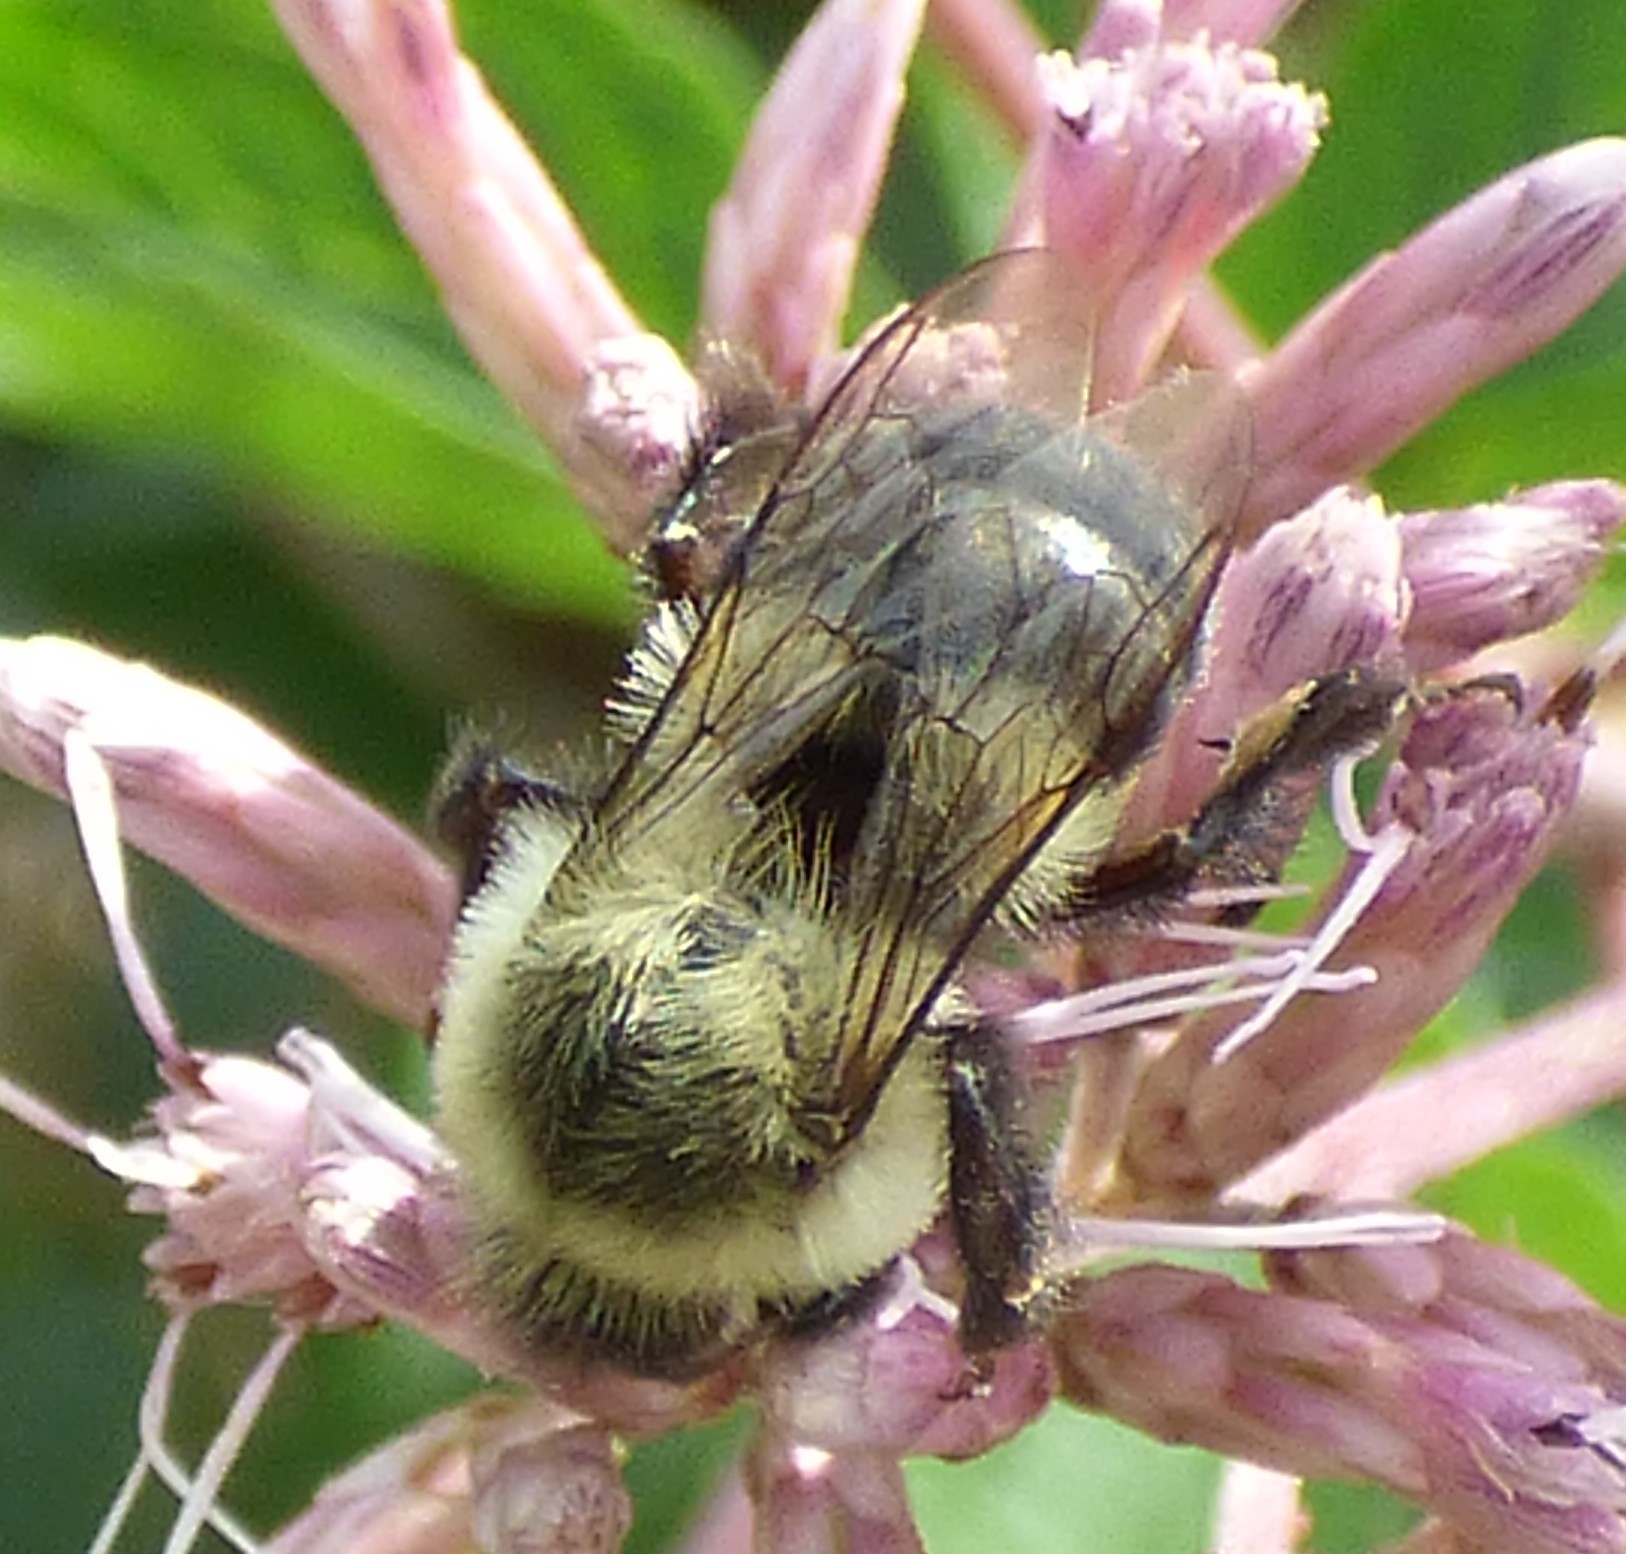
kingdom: Animalia
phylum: Arthropoda
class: Insecta
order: Hymenoptera
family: Apidae
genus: Bombus
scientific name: Bombus impatiens
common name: Common eastern bumble bee
